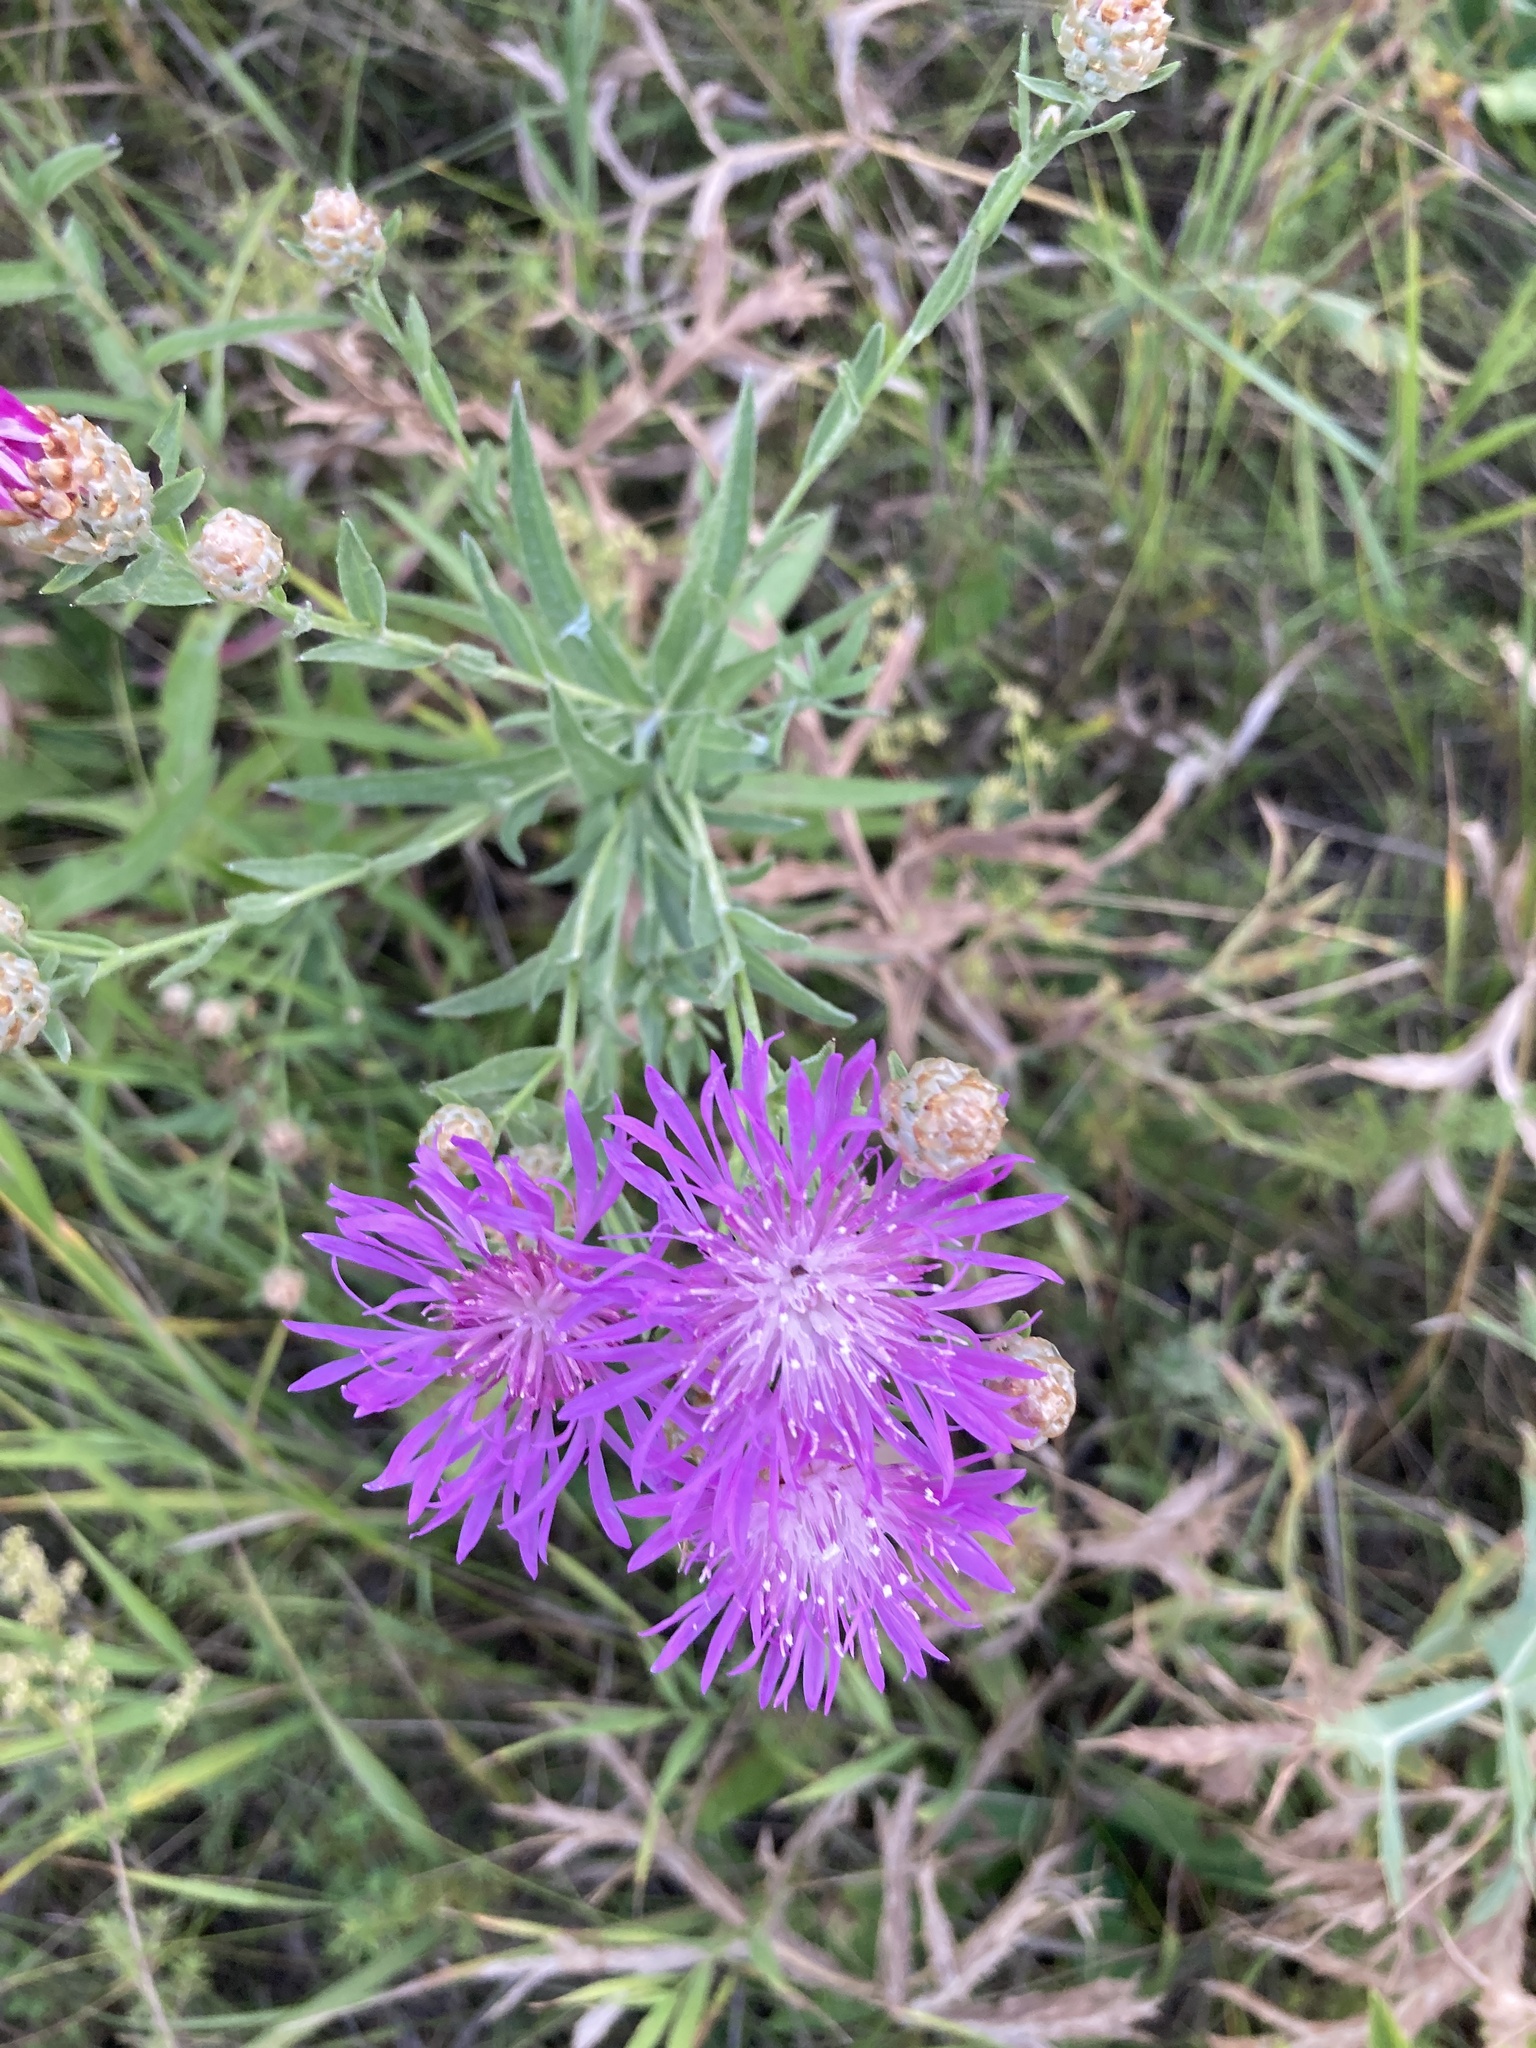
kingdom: Plantae
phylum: Tracheophyta
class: Magnoliopsida
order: Asterales
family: Asteraceae
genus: Centaurea
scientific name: Centaurea jacea
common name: Brown knapweed
